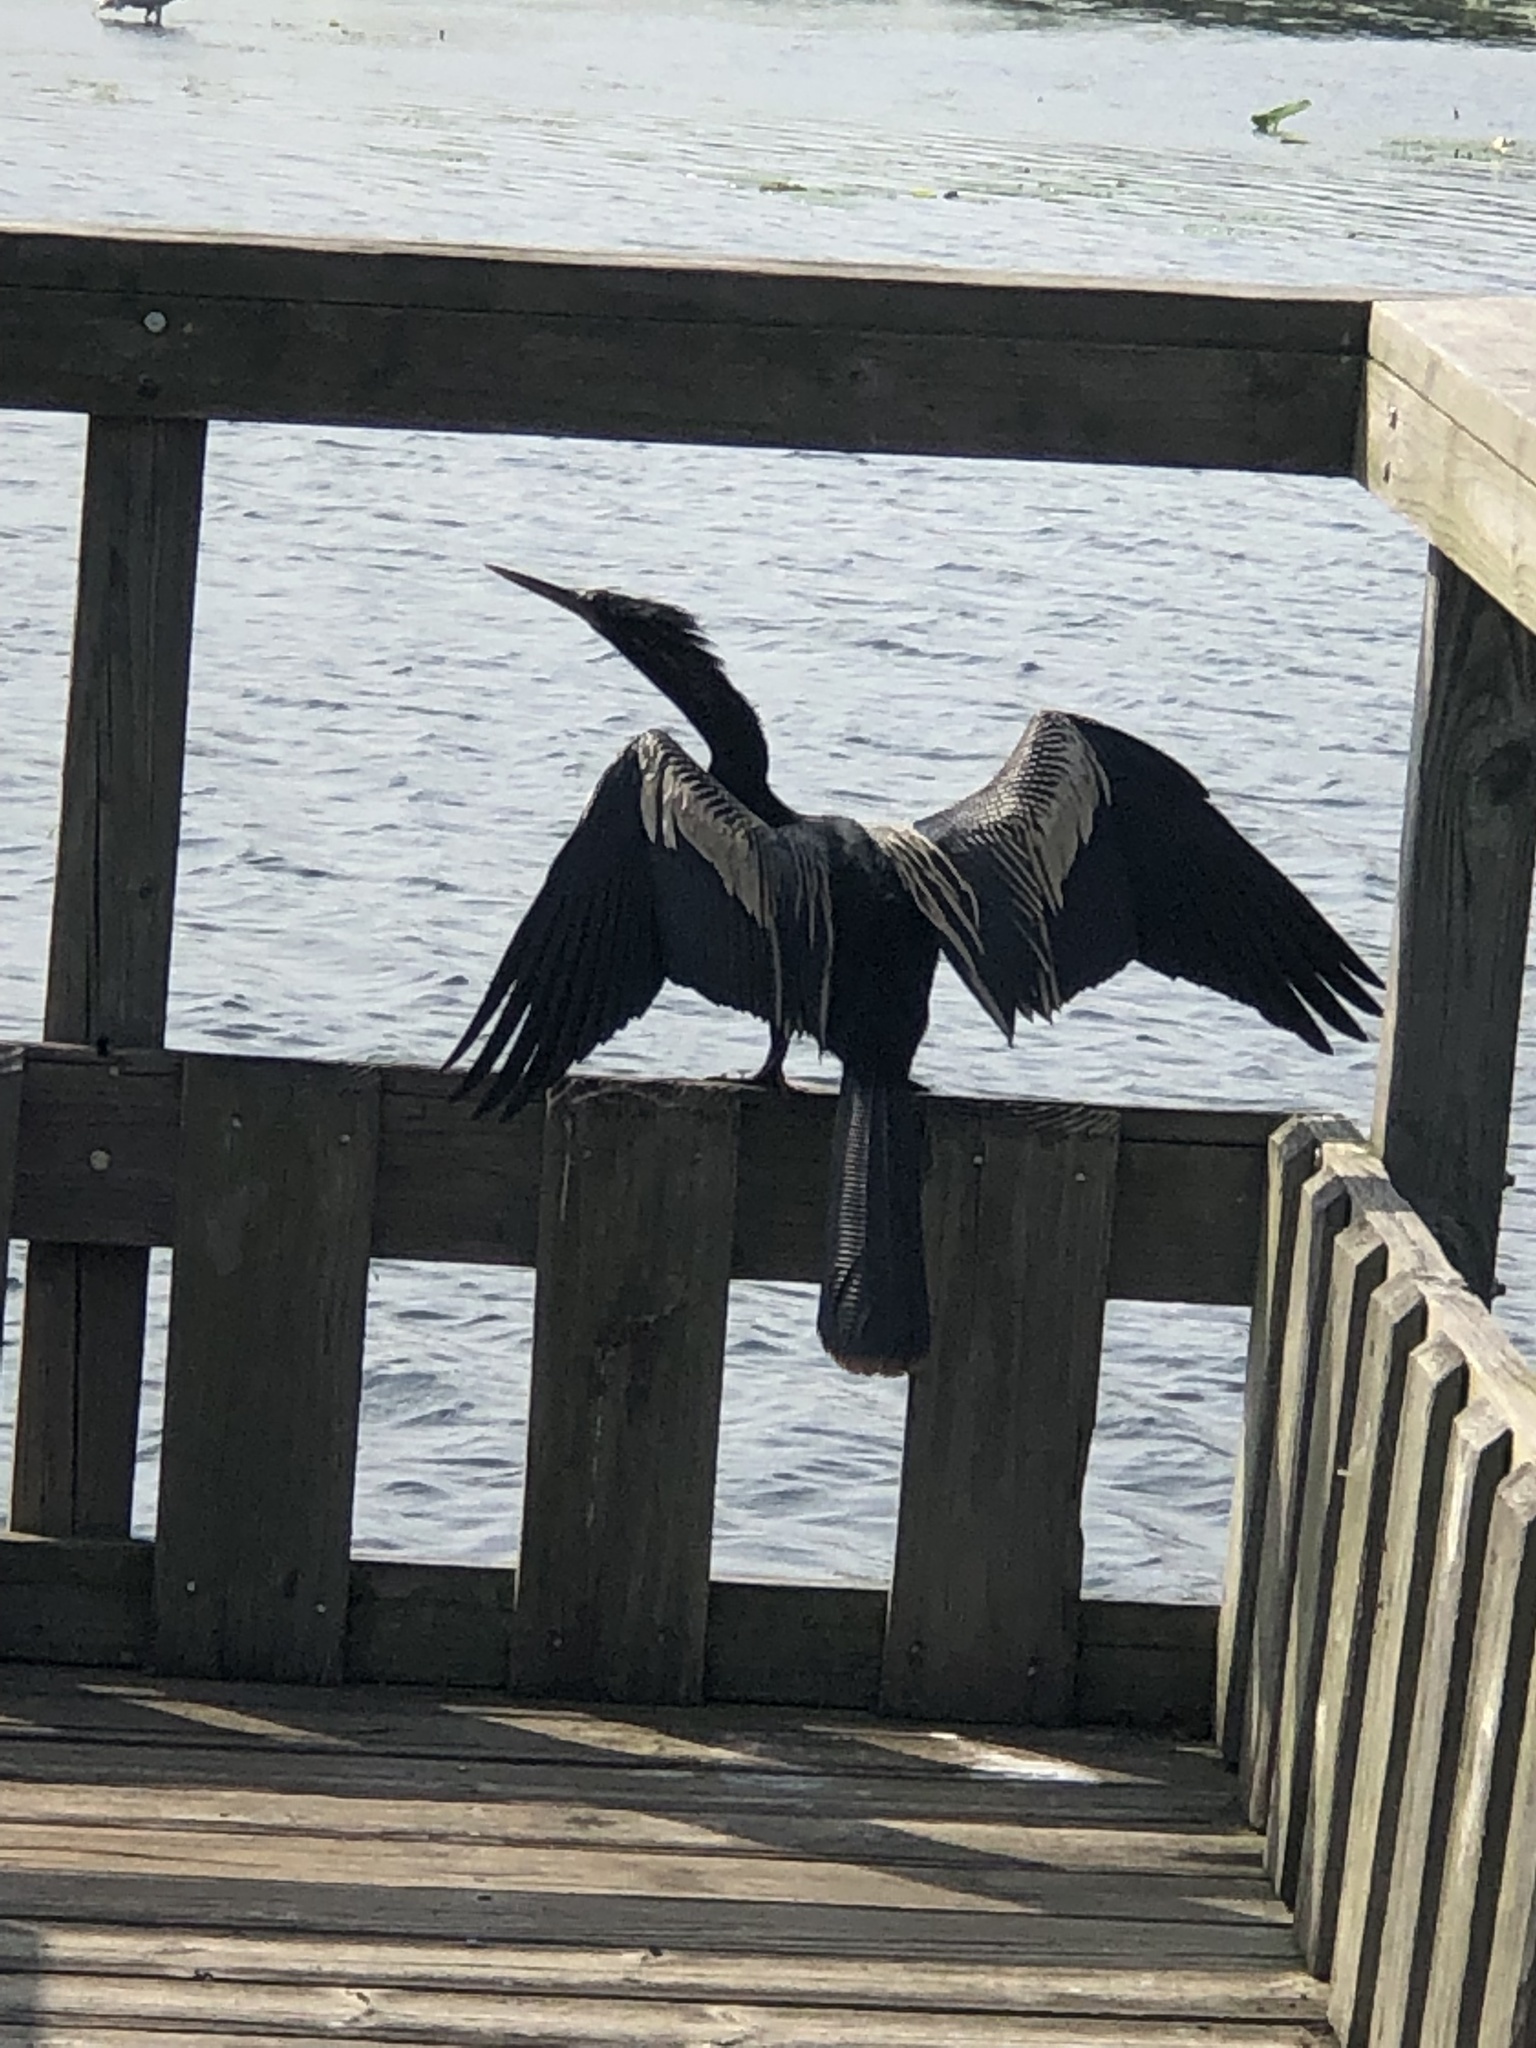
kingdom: Animalia
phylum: Chordata
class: Aves
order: Suliformes
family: Anhingidae
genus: Anhinga
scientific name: Anhinga anhinga
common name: Anhinga
